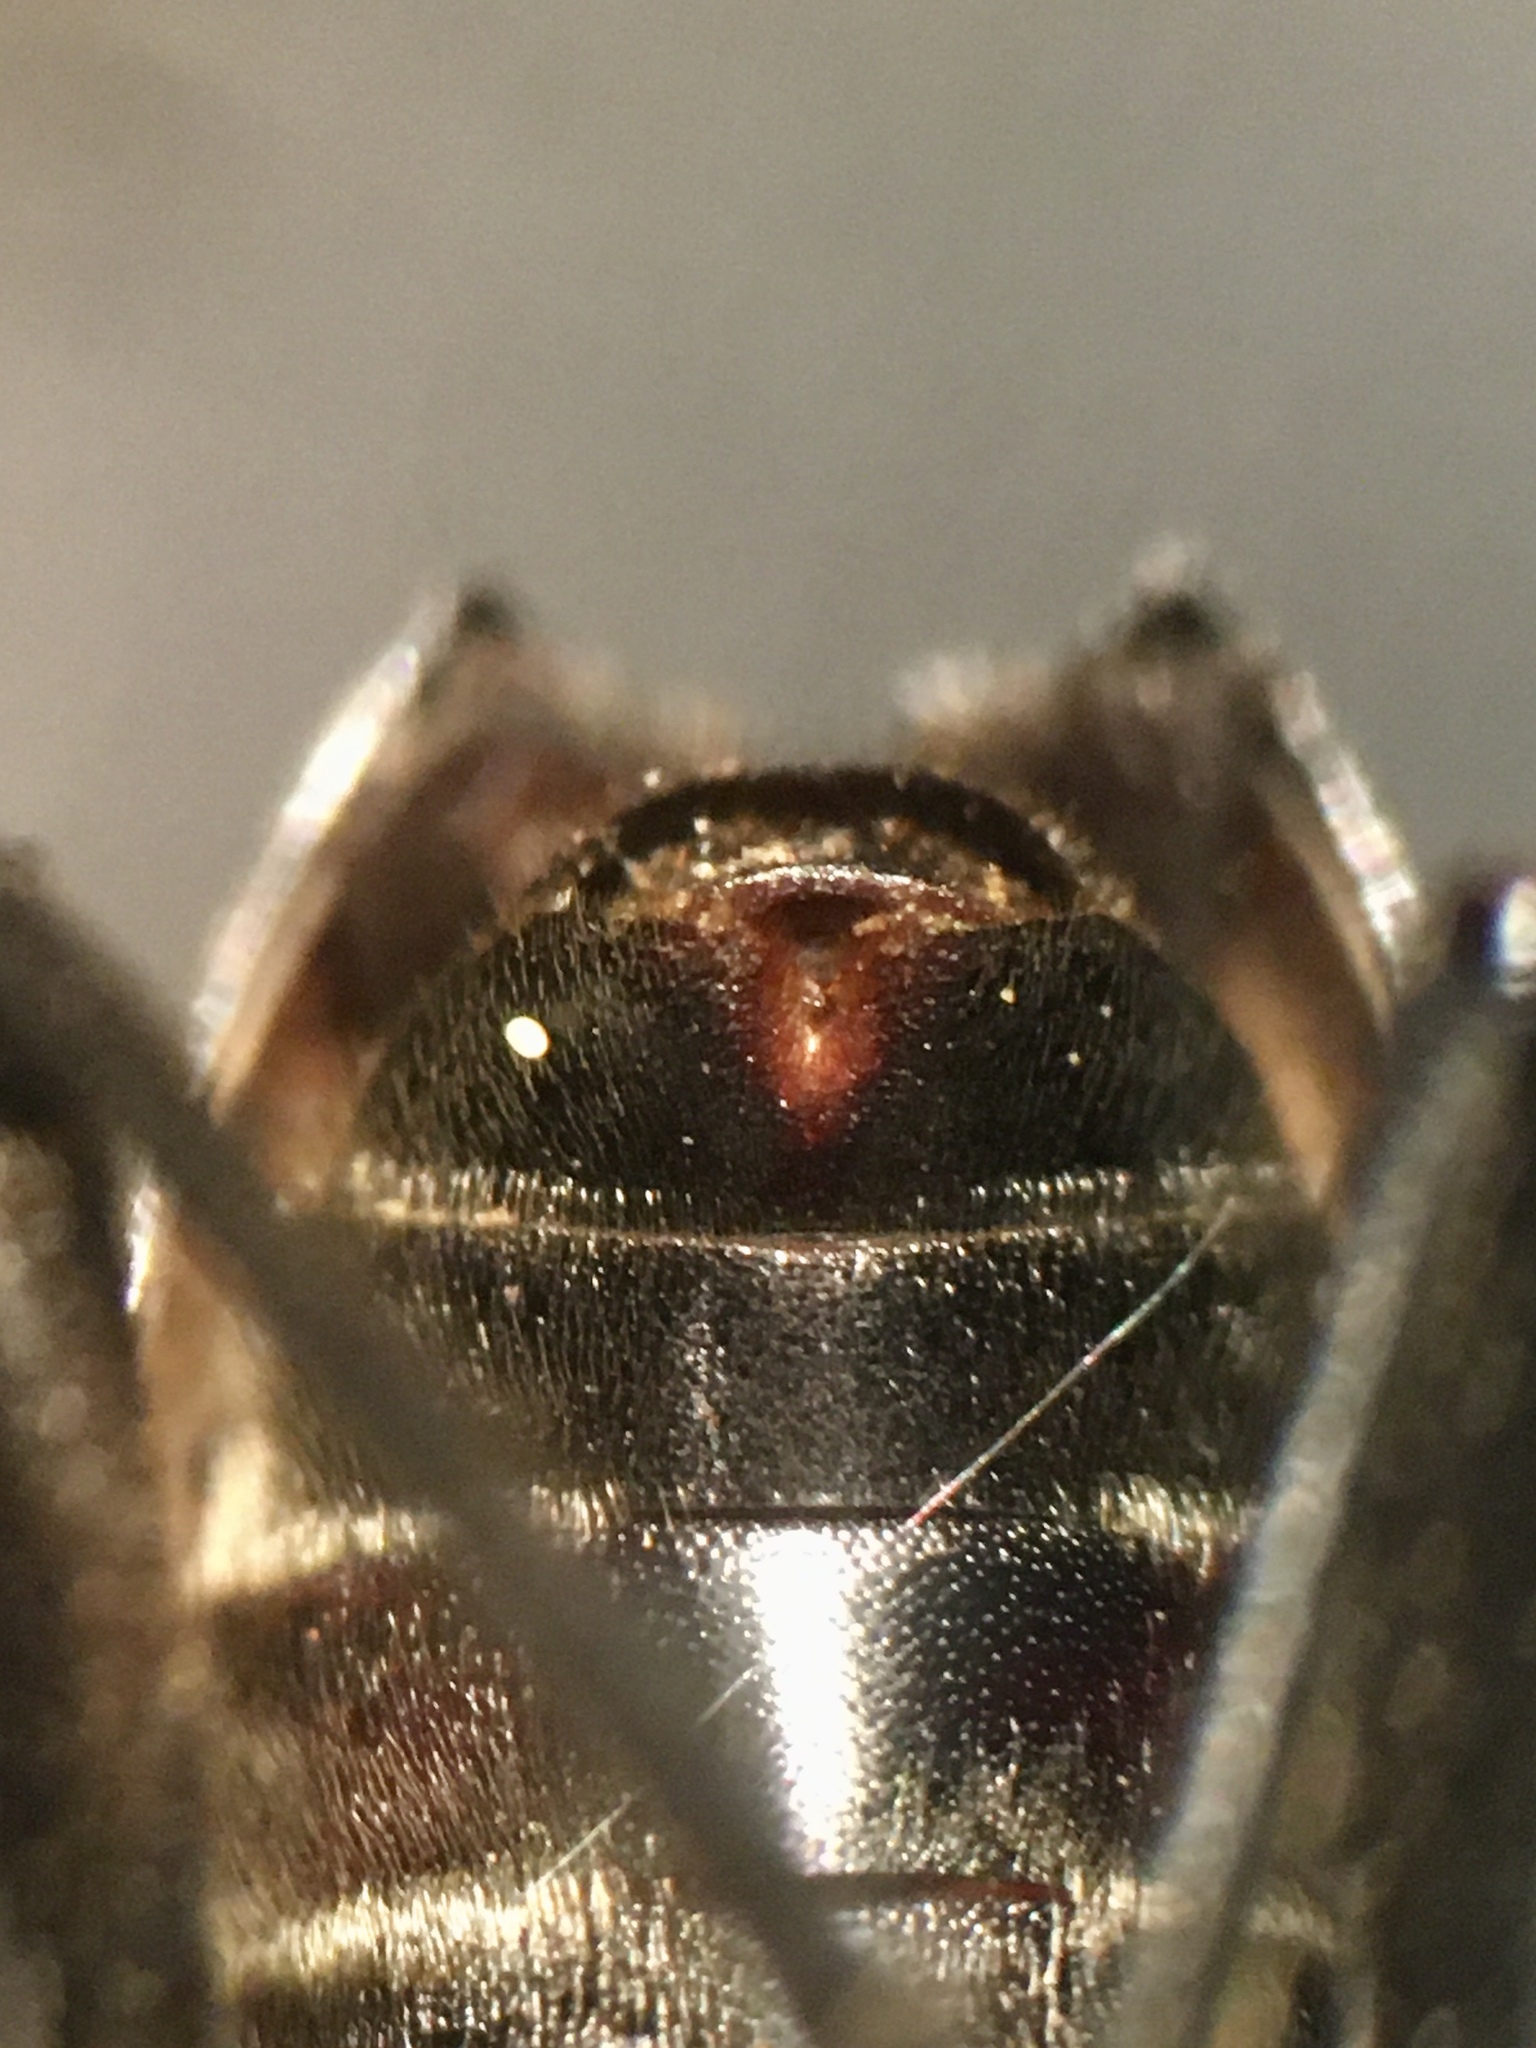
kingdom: Animalia
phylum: Arthropoda
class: Insecta
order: Coleoptera
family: Cerambycidae
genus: Trigonarthris
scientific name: Trigonarthris proxima
